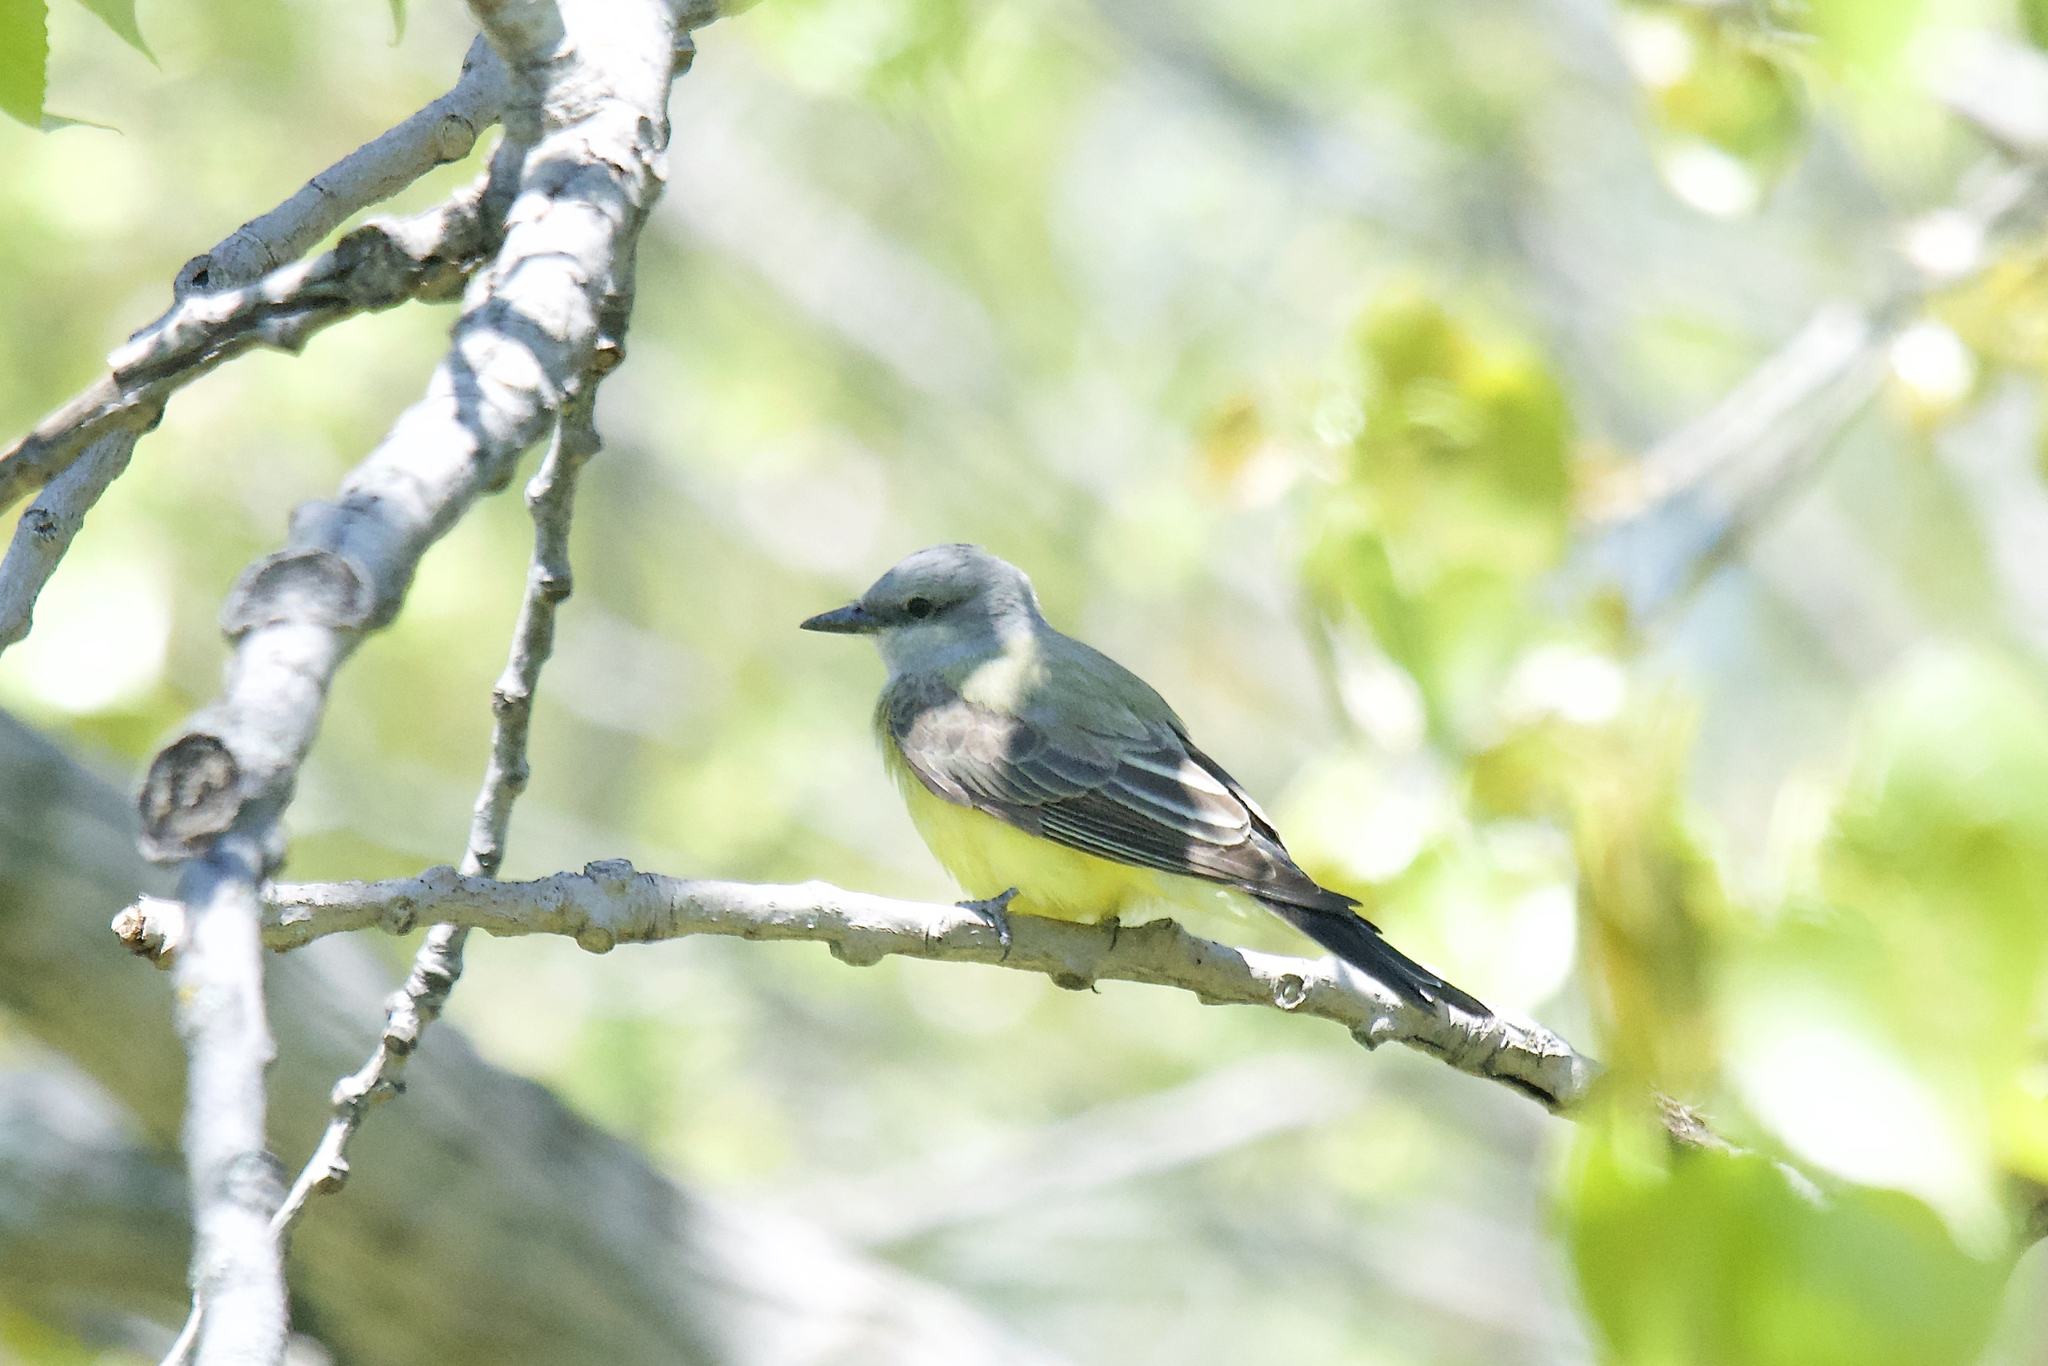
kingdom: Animalia
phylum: Chordata
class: Aves
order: Passeriformes
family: Tyrannidae
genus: Tyrannus
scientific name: Tyrannus verticalis
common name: Western kingbird
